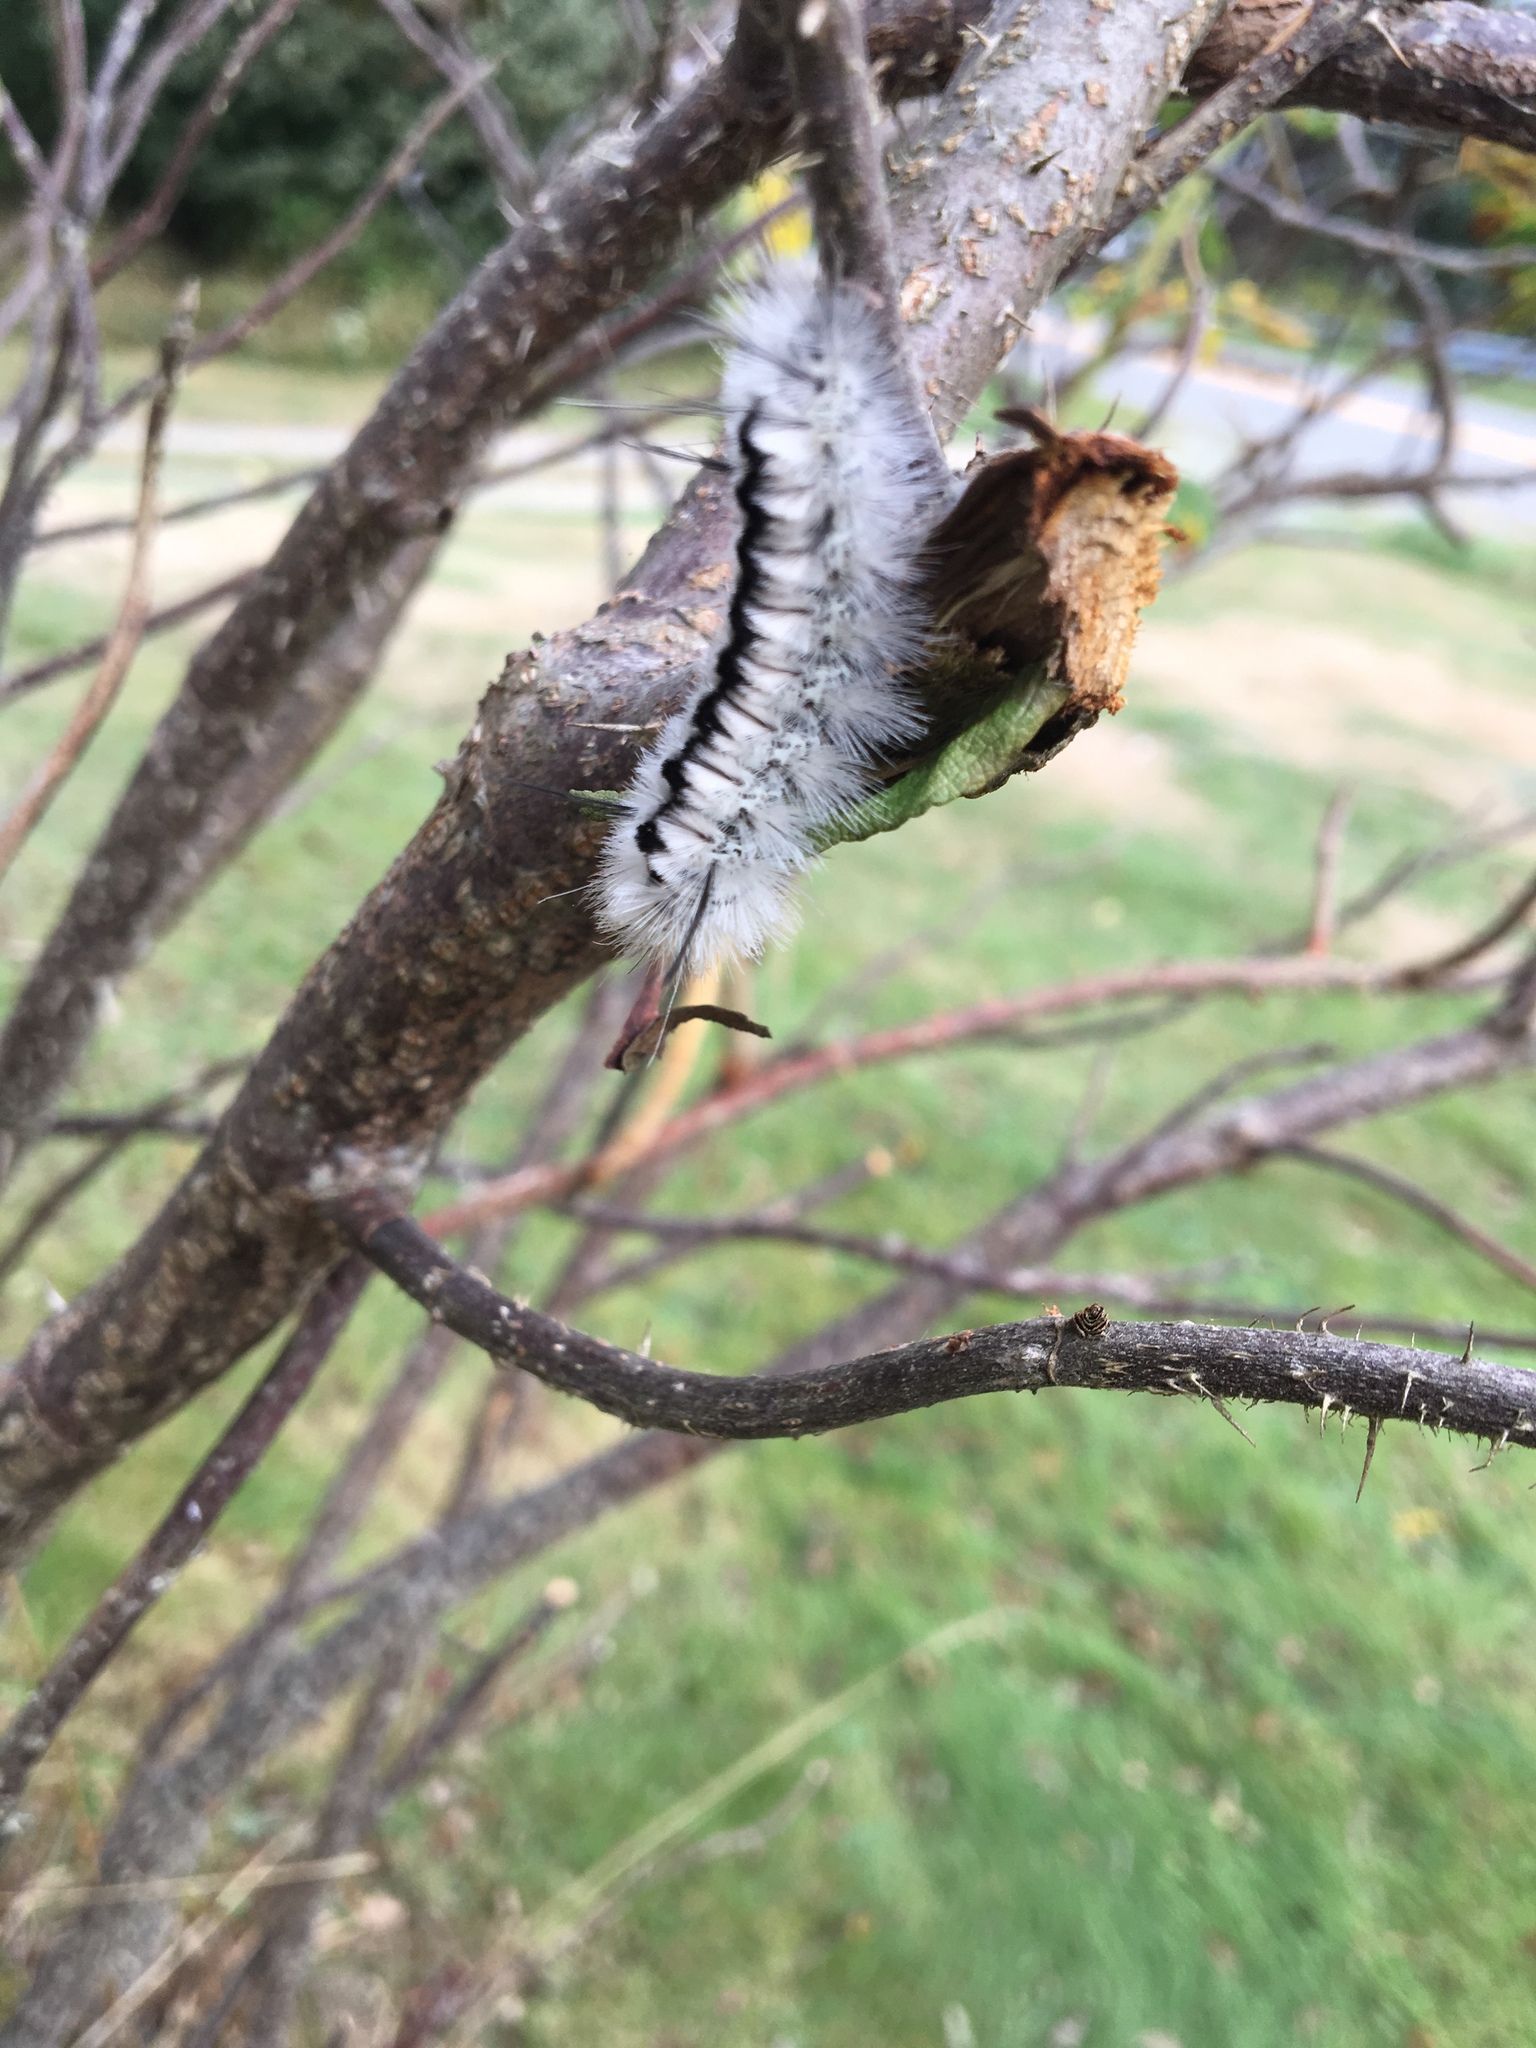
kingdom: Animalia
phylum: Arthropoda
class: Insecta
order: Lepidoptera
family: Erebidae
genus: Lophocampa
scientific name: Lophocampa caryae
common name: Hickory tussock moth
